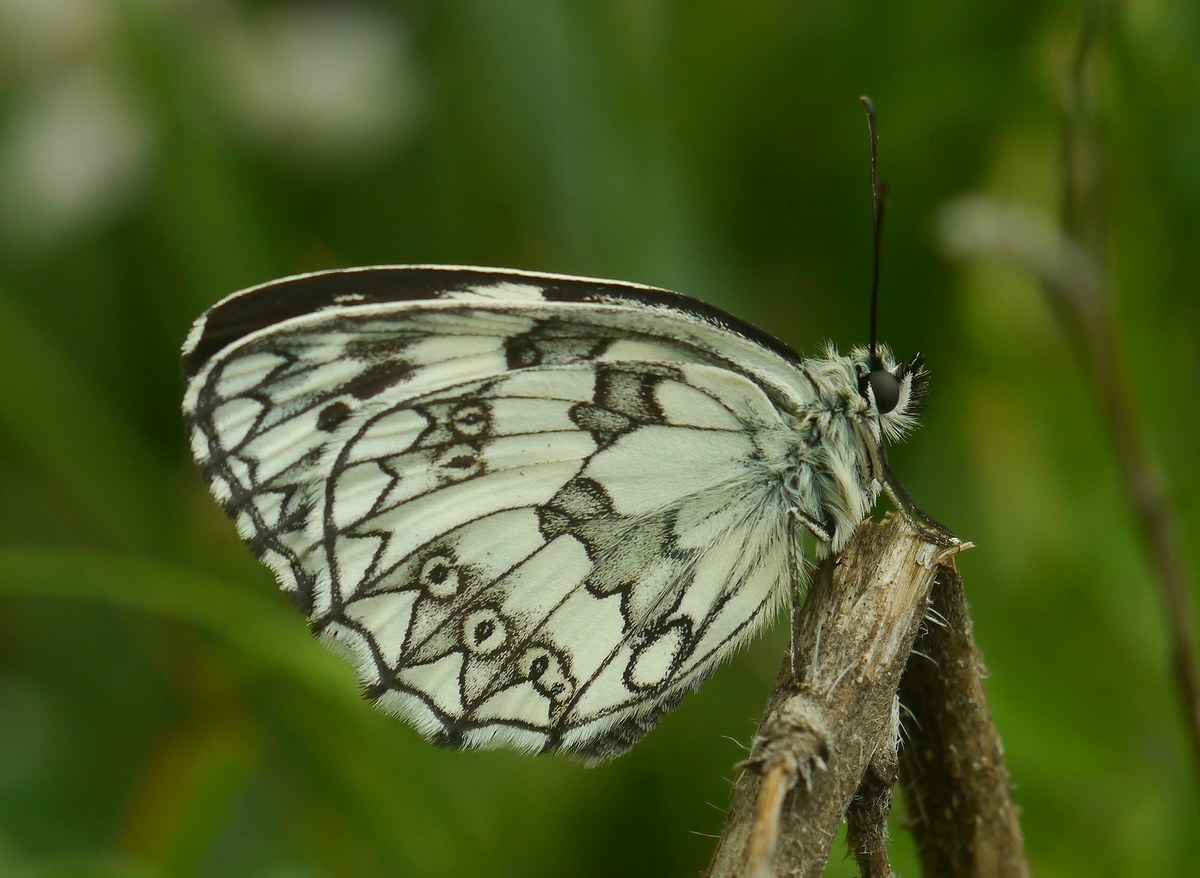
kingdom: Animalia
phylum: Arthropoda
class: Insecta
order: Lepidoptera
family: Nymphalidae
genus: Melanargia
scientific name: Melanargia galathea
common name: Marbled white
